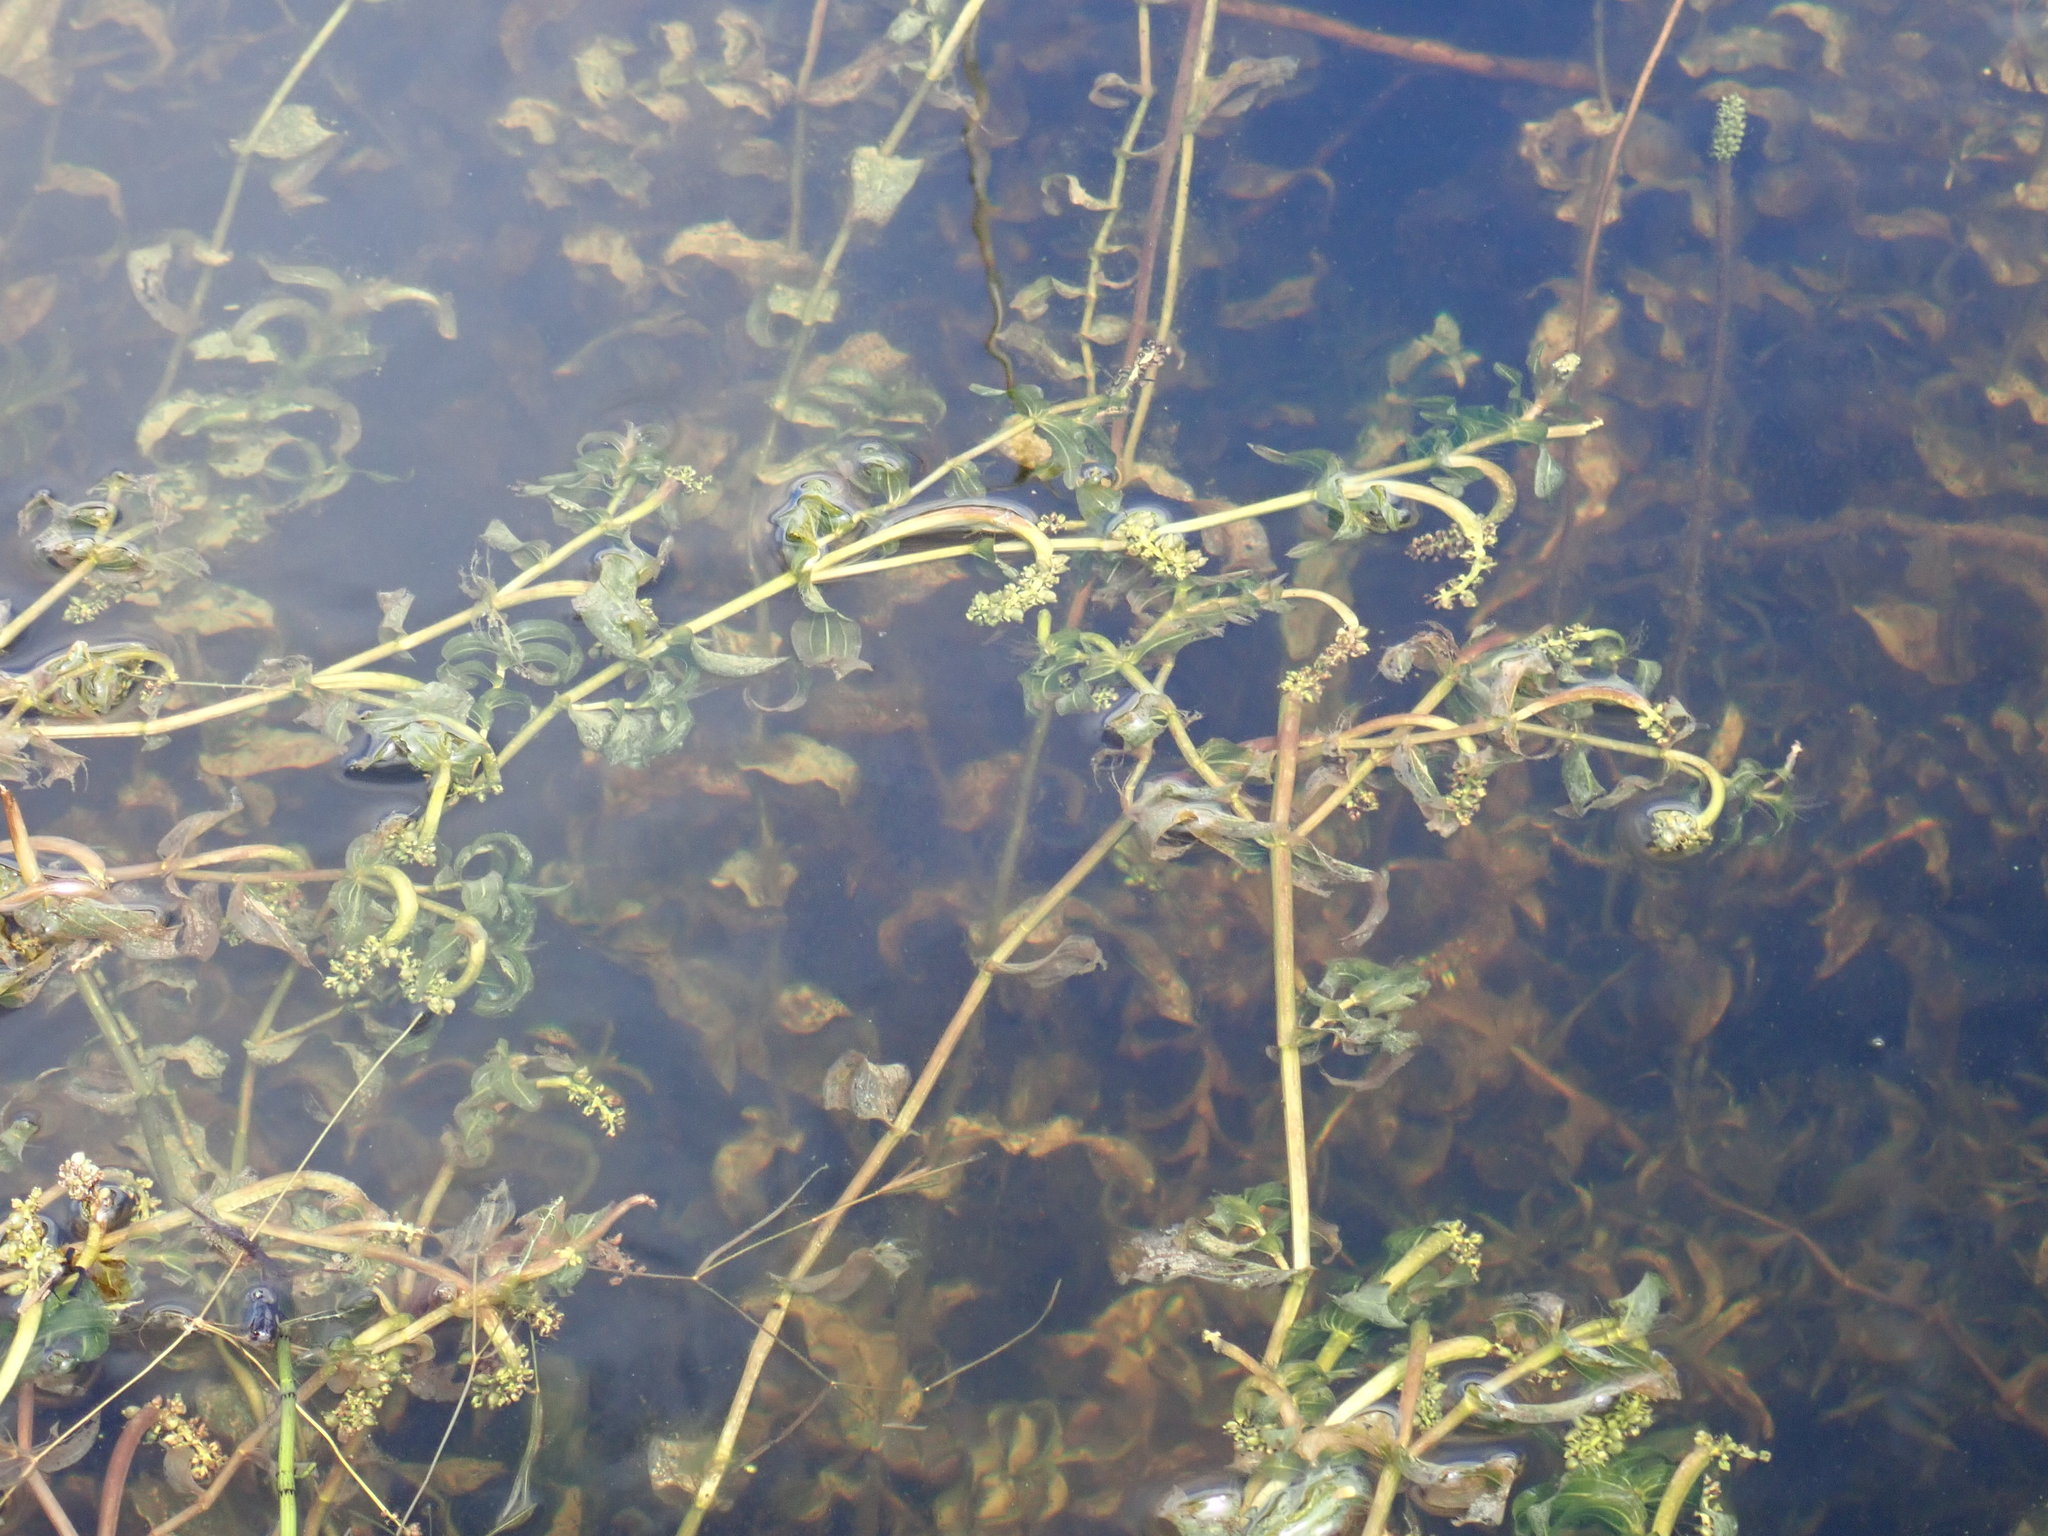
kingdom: Plantae
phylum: Tracheophyta
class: Liliopsida
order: Alismatales
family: Potamogetonaceae
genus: Potamogeton
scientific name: Potamogeton richardsonii
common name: Richardson's pondweed
